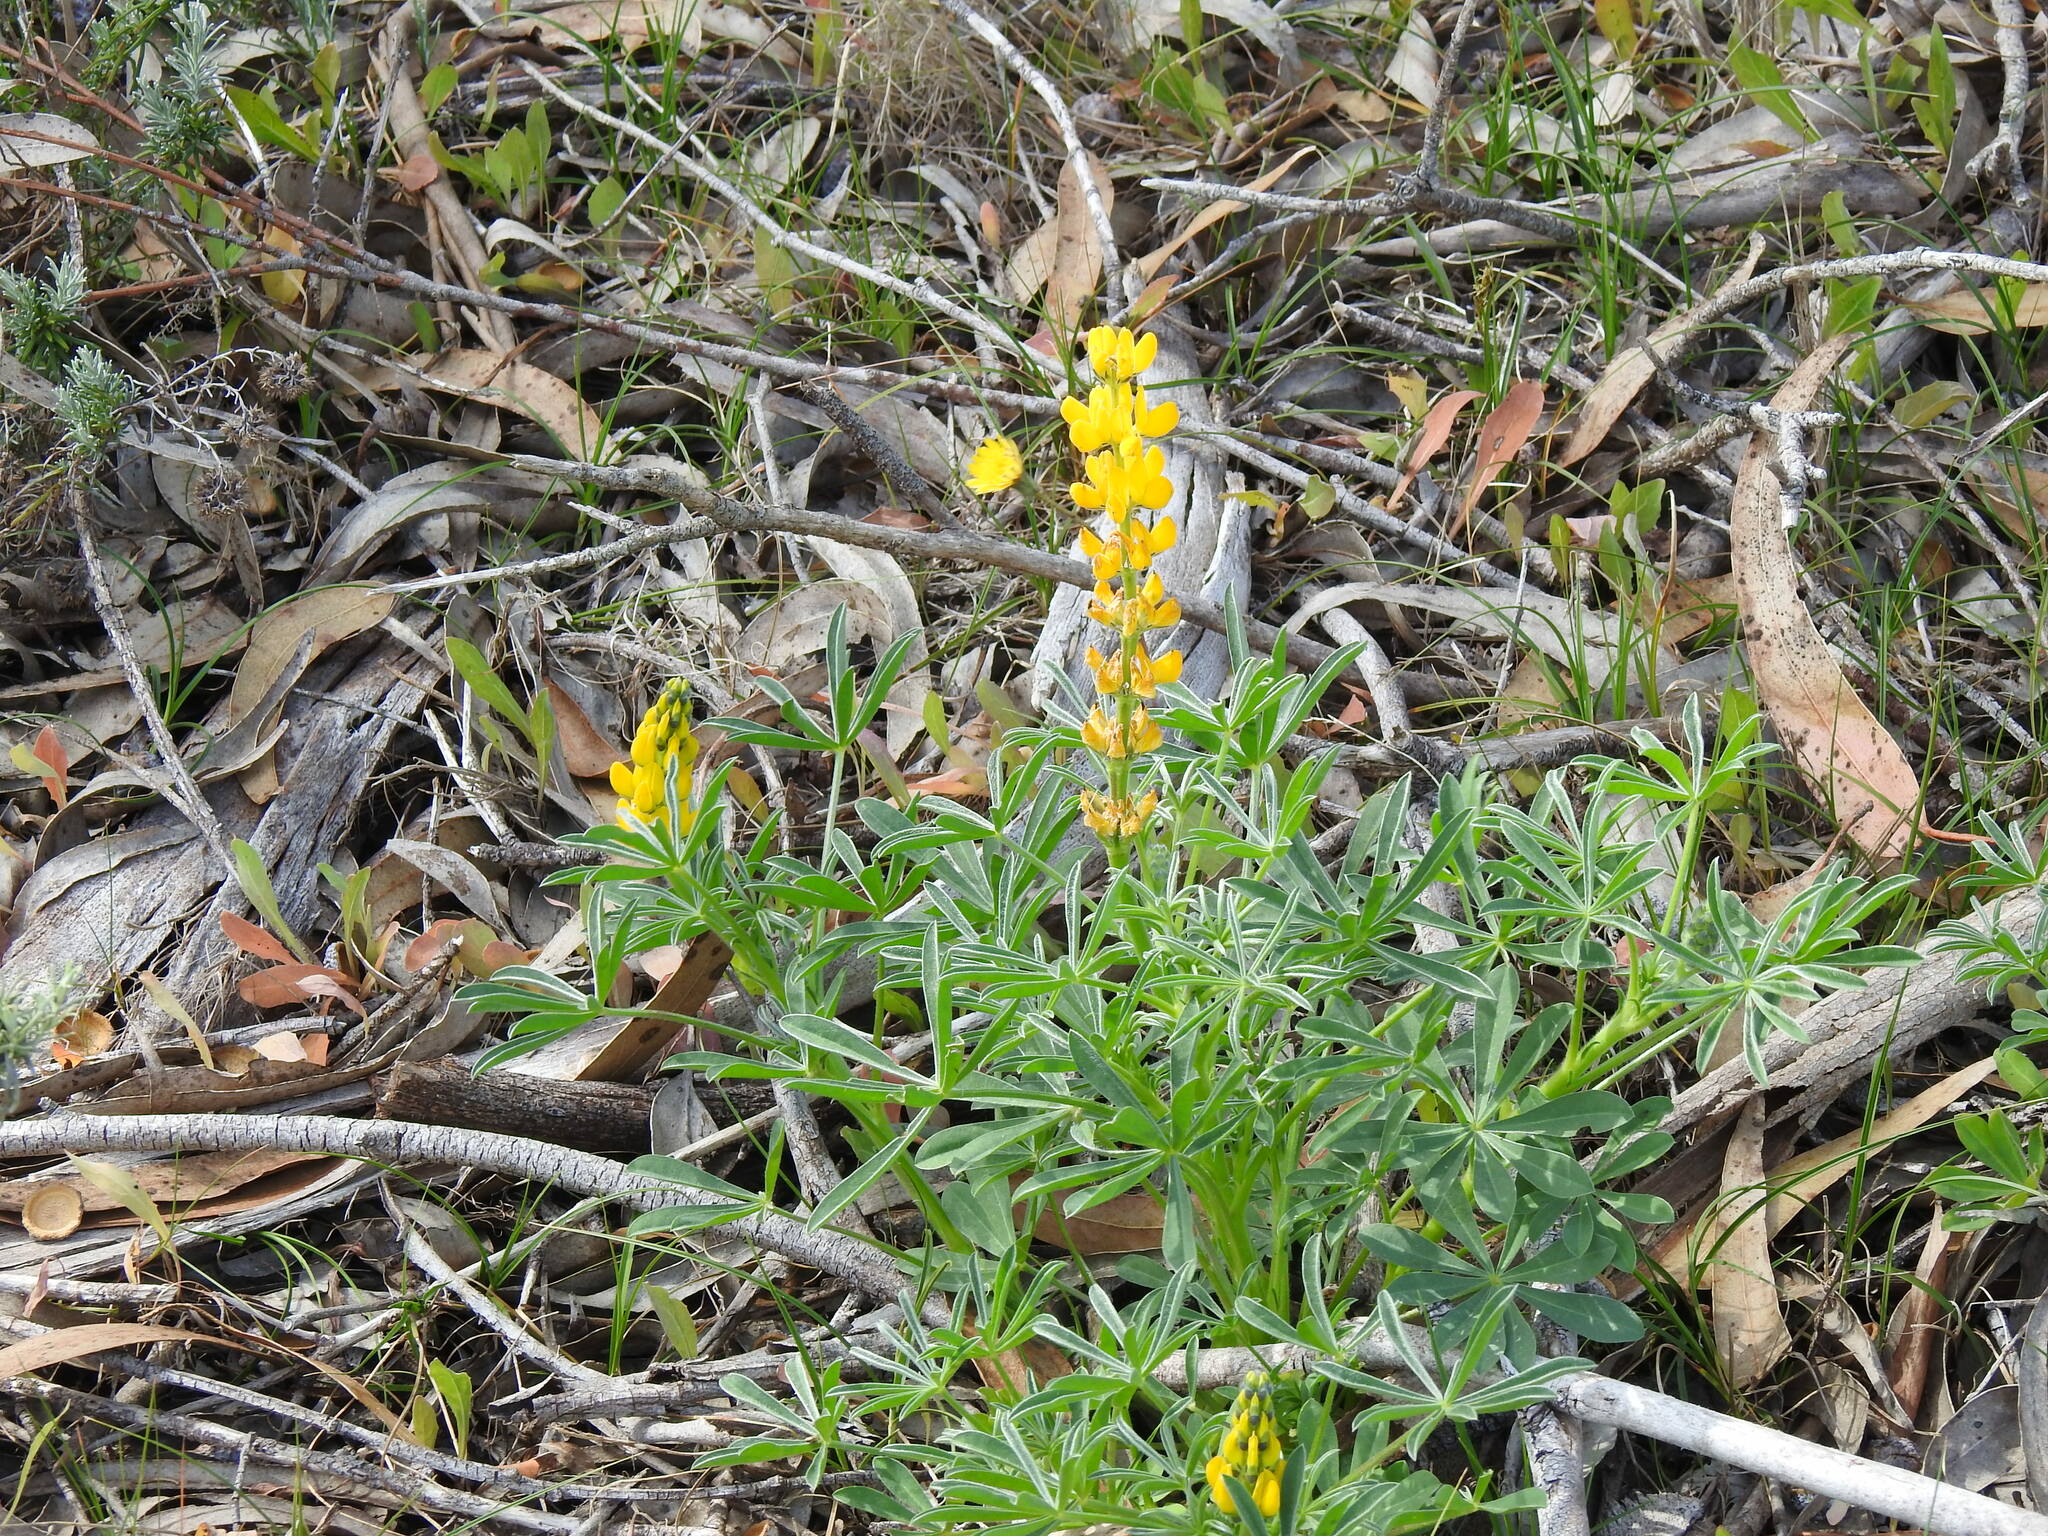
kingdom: Plantae
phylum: Tracheophyta
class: Magnoliopsida
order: Fabales
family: Fabaceae
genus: Lupinus
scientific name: Lupinus luteus
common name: European yellow lupine
